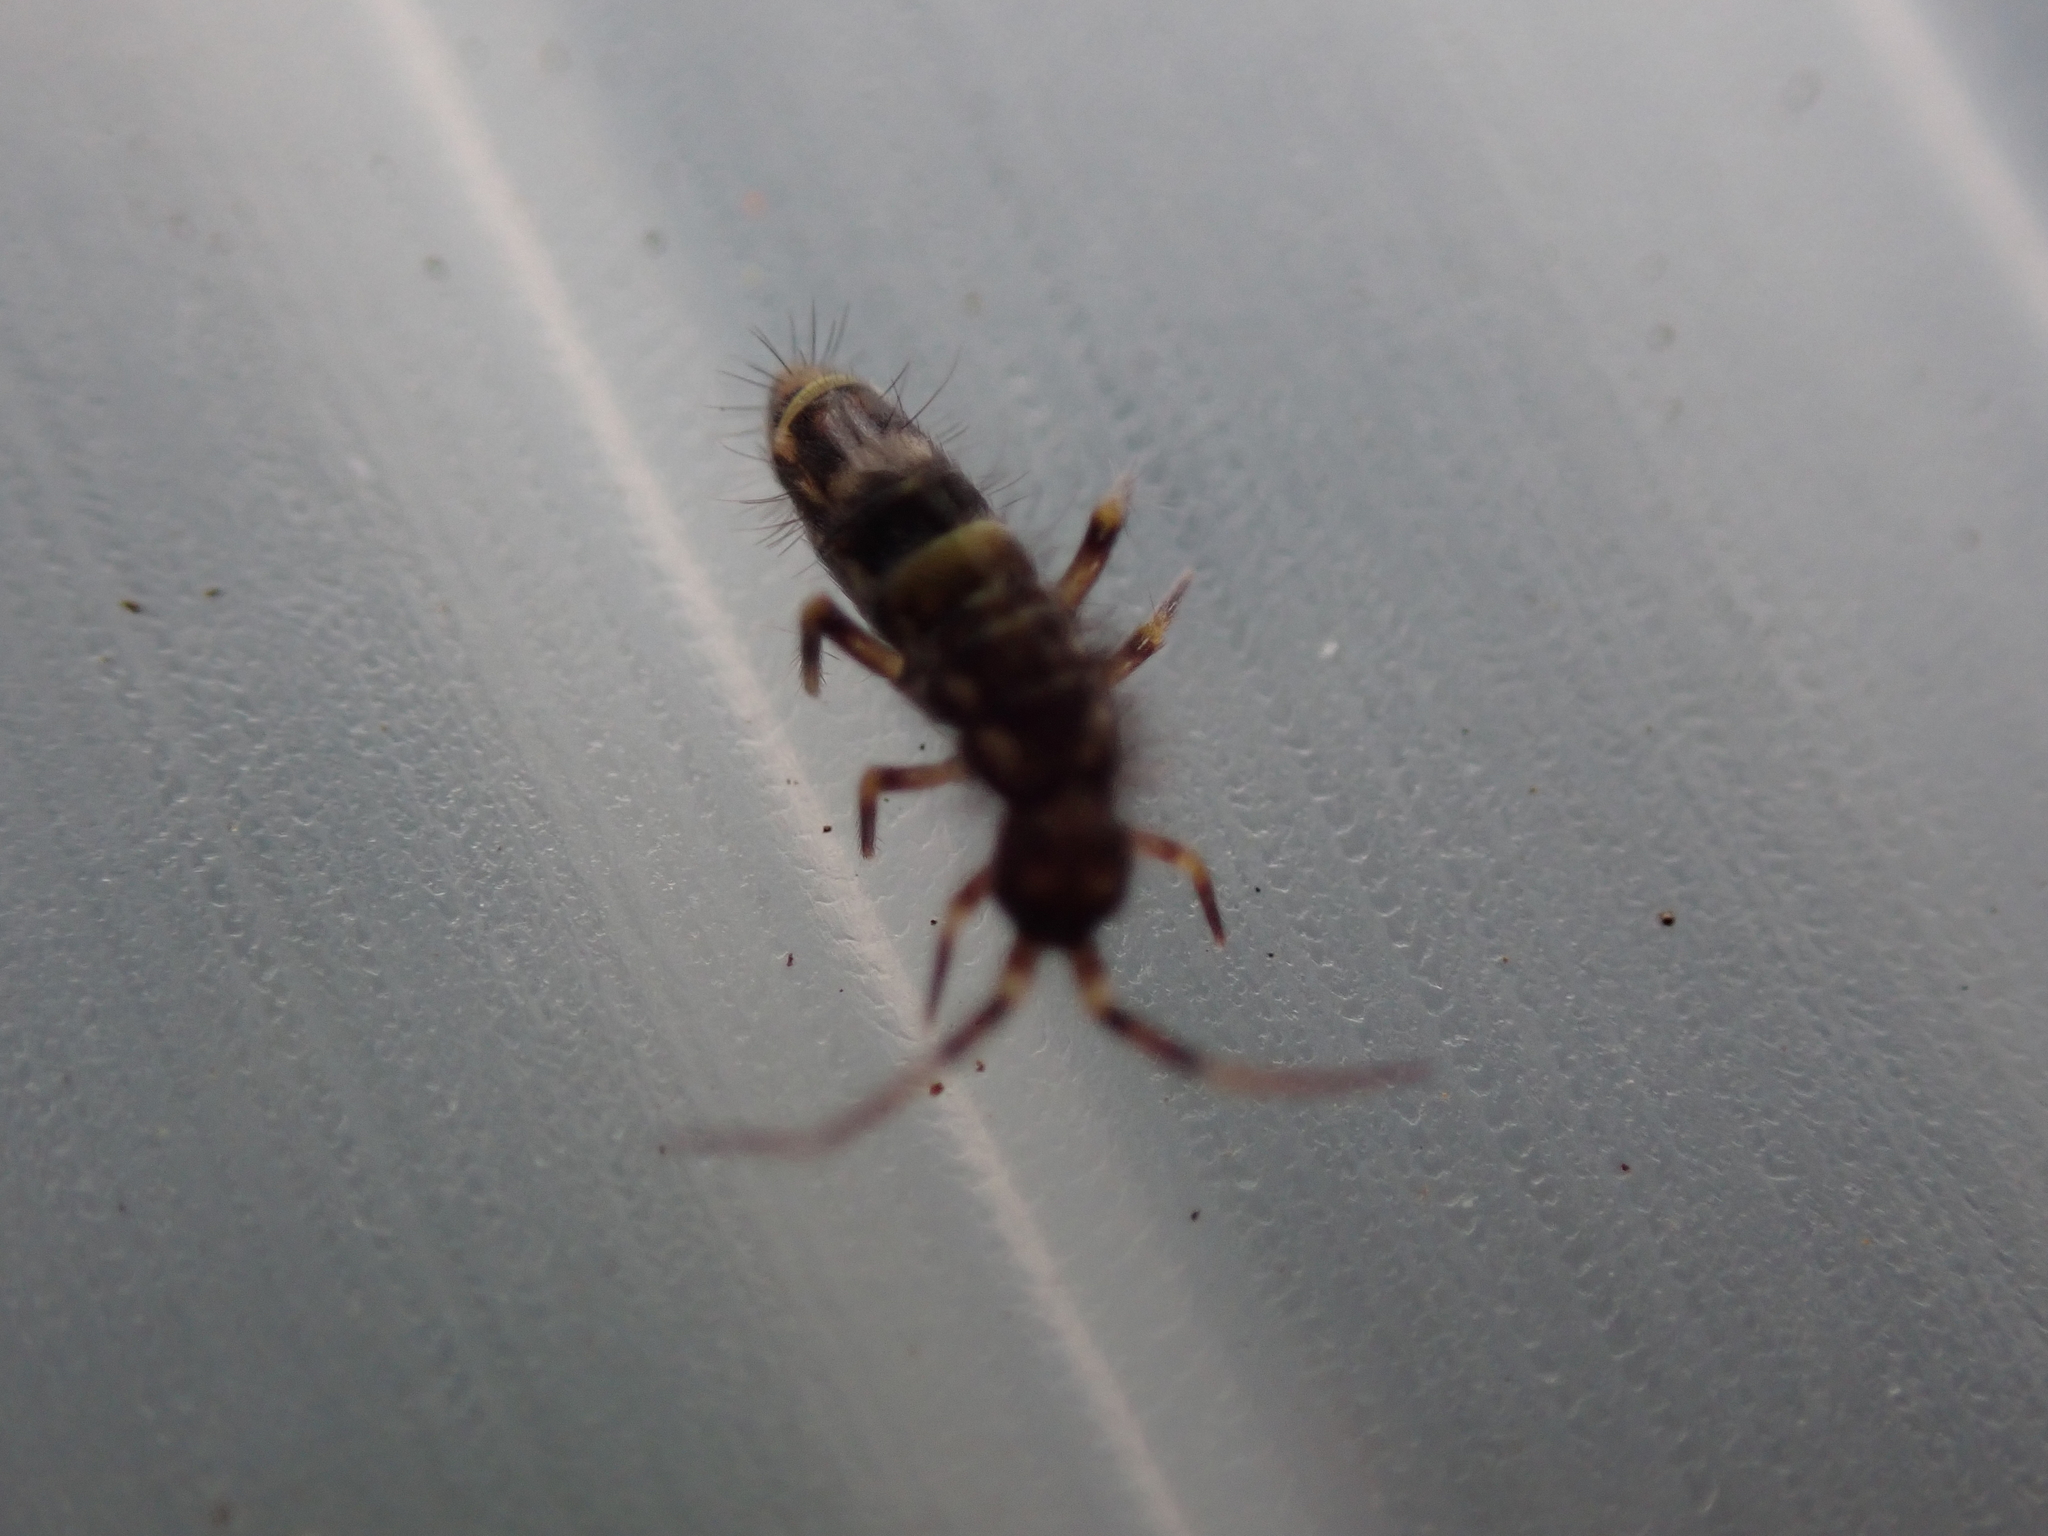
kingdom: Animalia
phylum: Arthropoda
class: Collembola
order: Entomobryomorpha
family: Orchesellidae
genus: Orchesella
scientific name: Orchesella cincta
